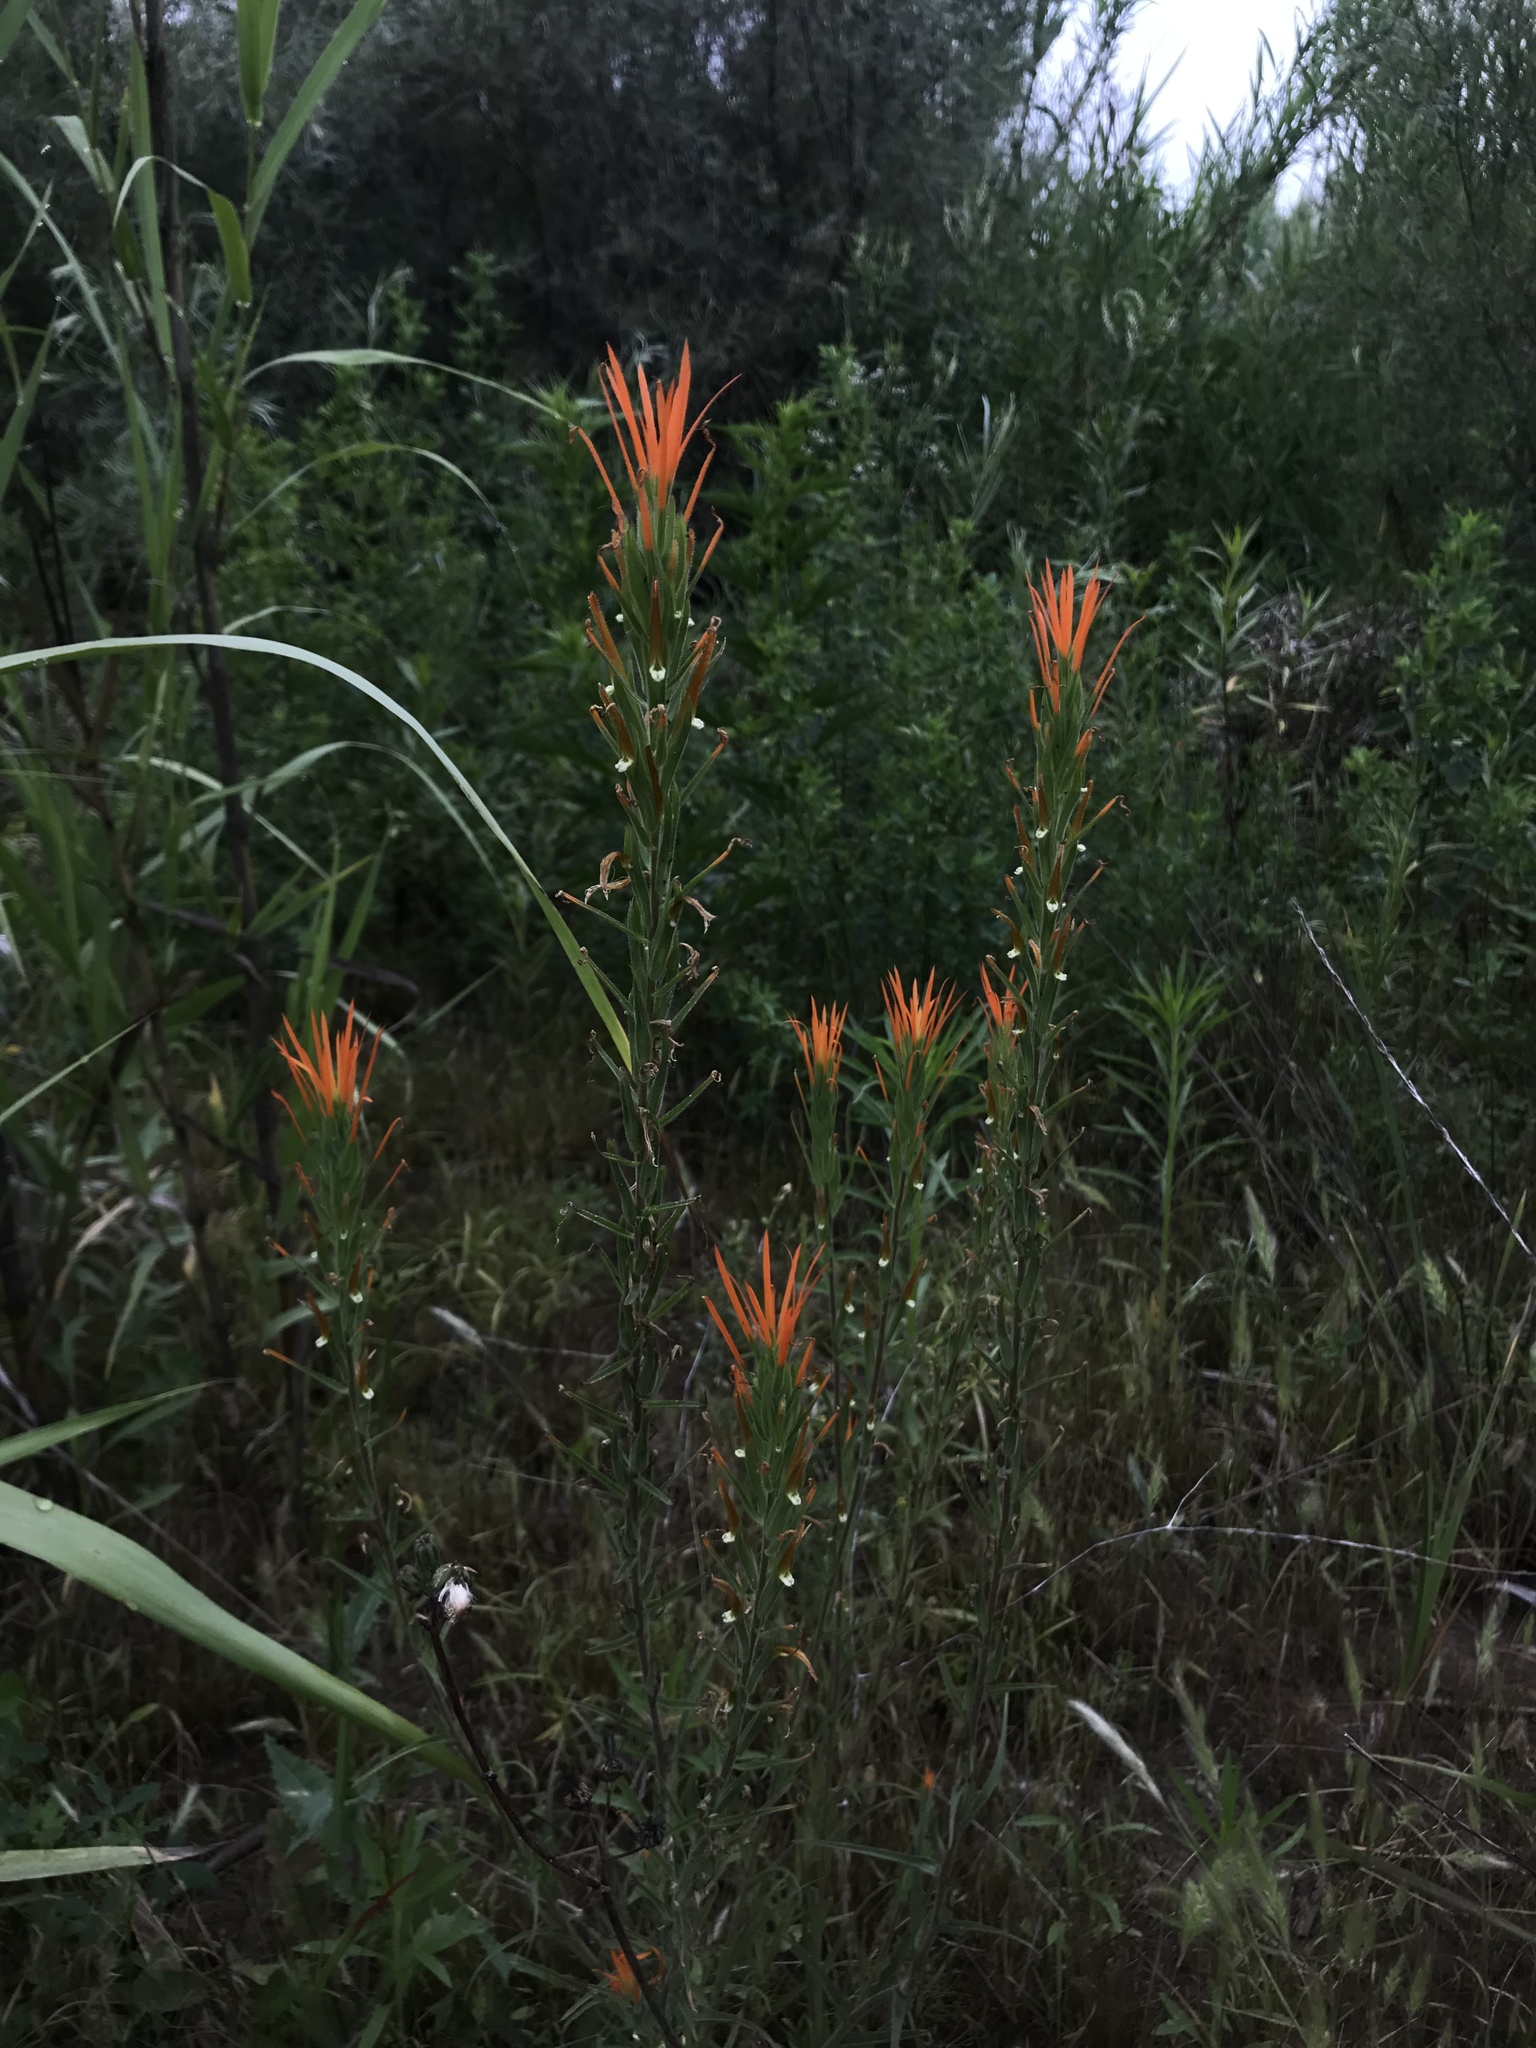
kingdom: Plantae
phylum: Tracheophyta
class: Magnoliopsida
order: Lamiales
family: Orobanchaceae
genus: Castilleja
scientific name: Castilleja minor
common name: Seep paintbrush
